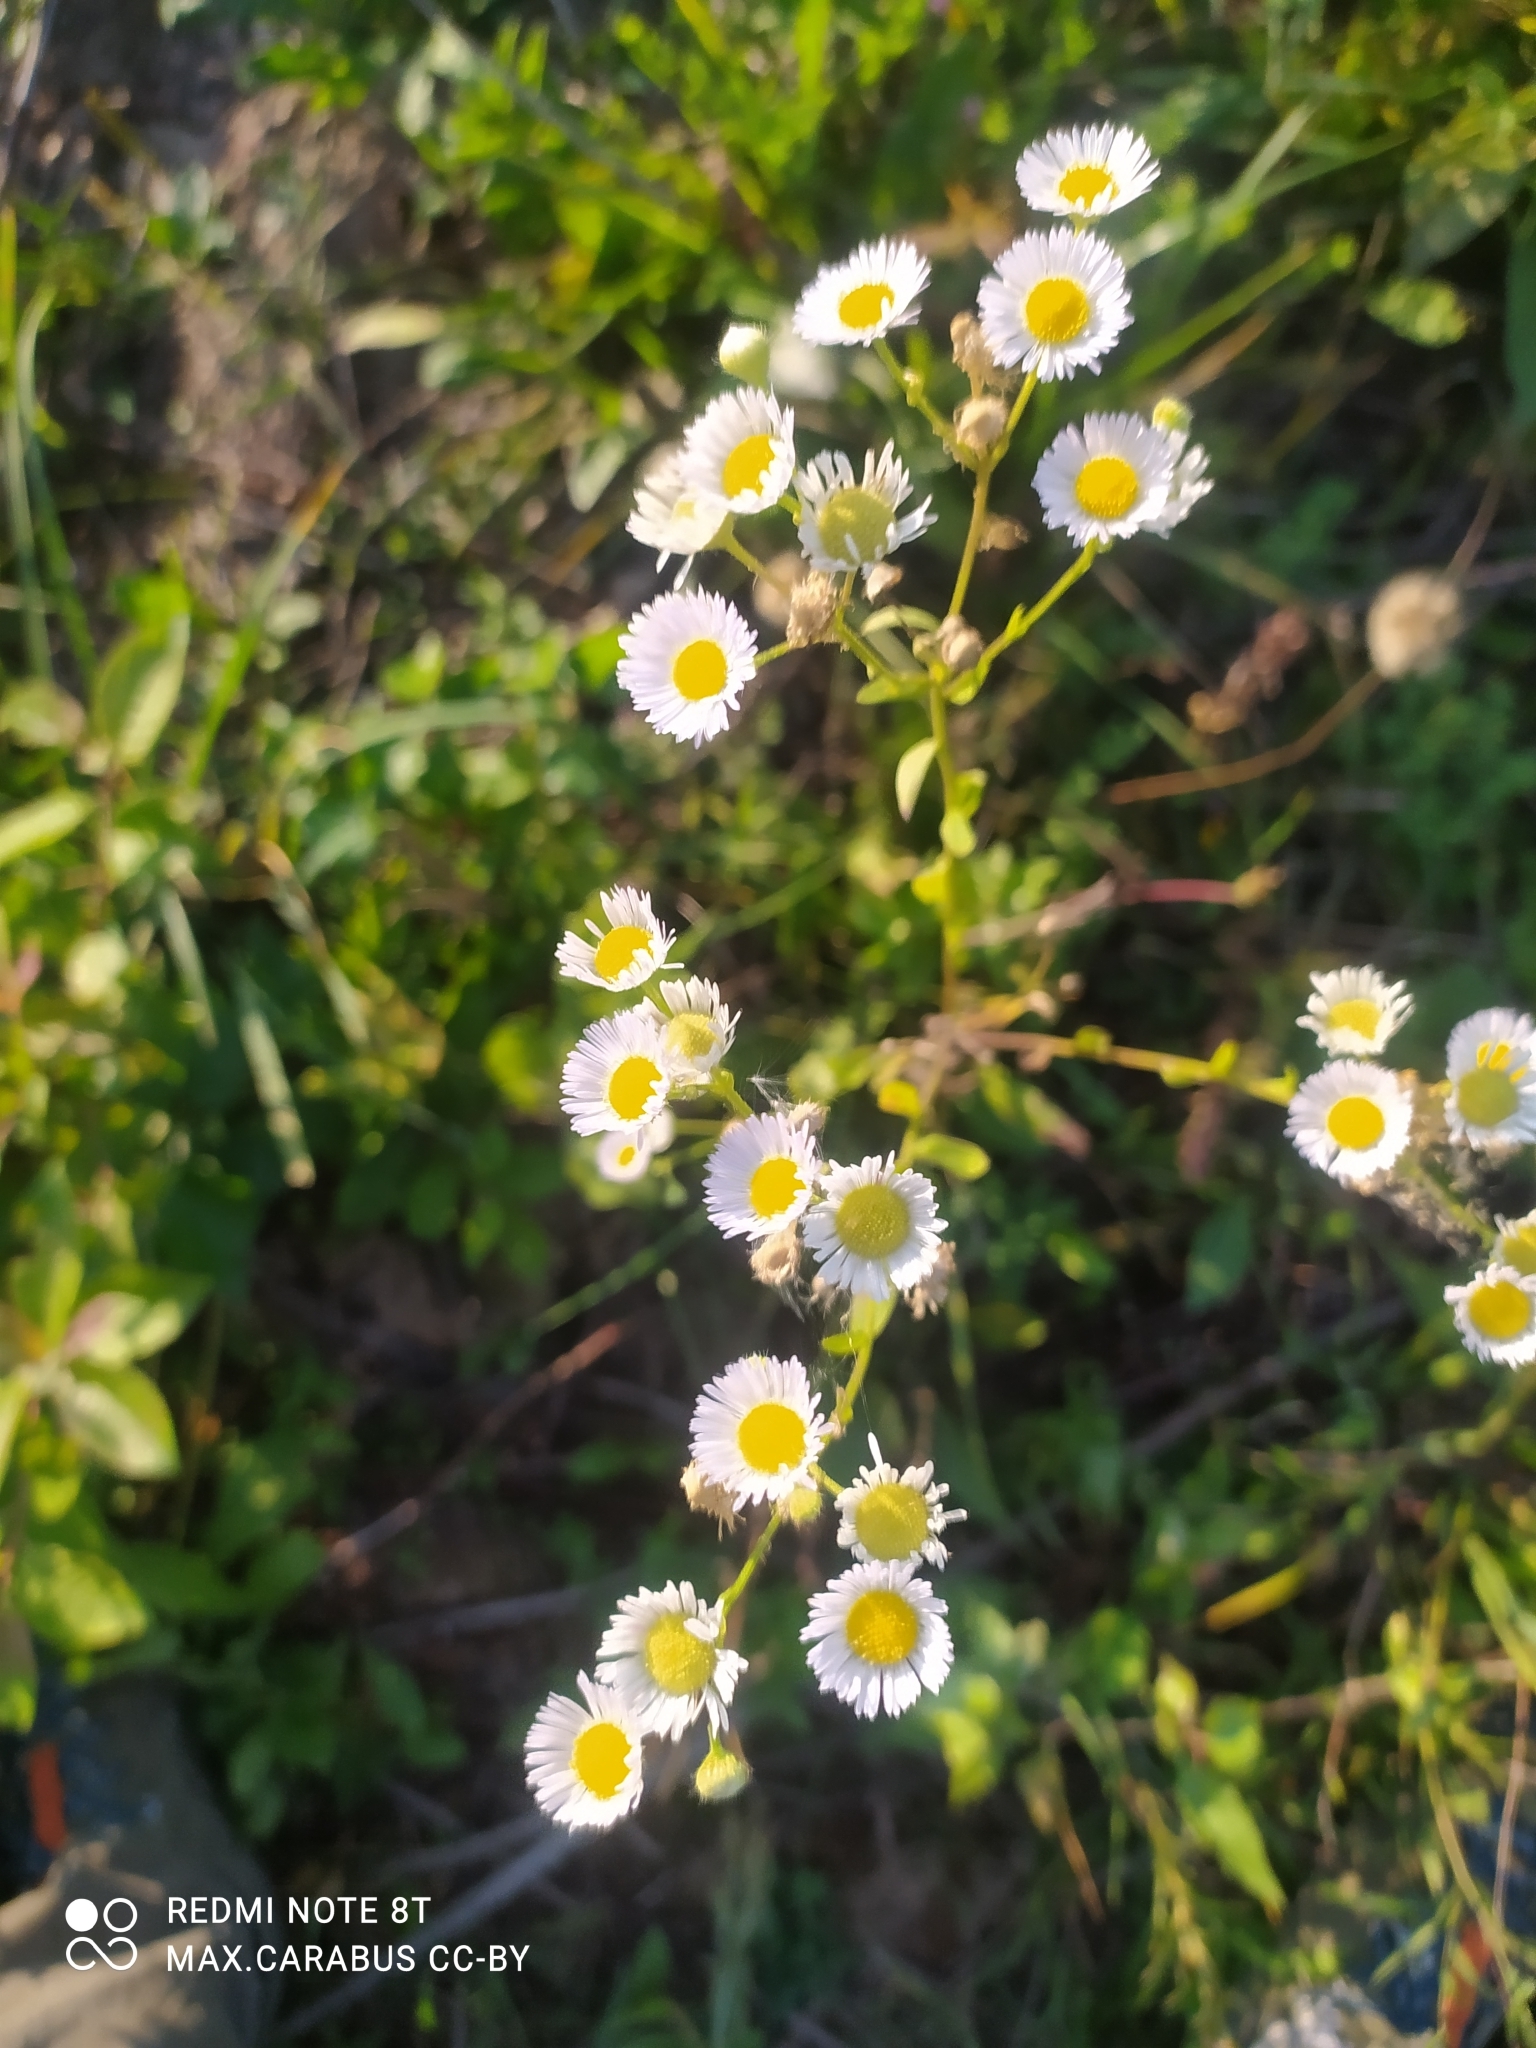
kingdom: Plantae
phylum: Tracheophyta
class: Magnoliopsida
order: Asterales
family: Asteraceae
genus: Erigeron
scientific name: Erigeron annuus
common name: Tall fleabane
